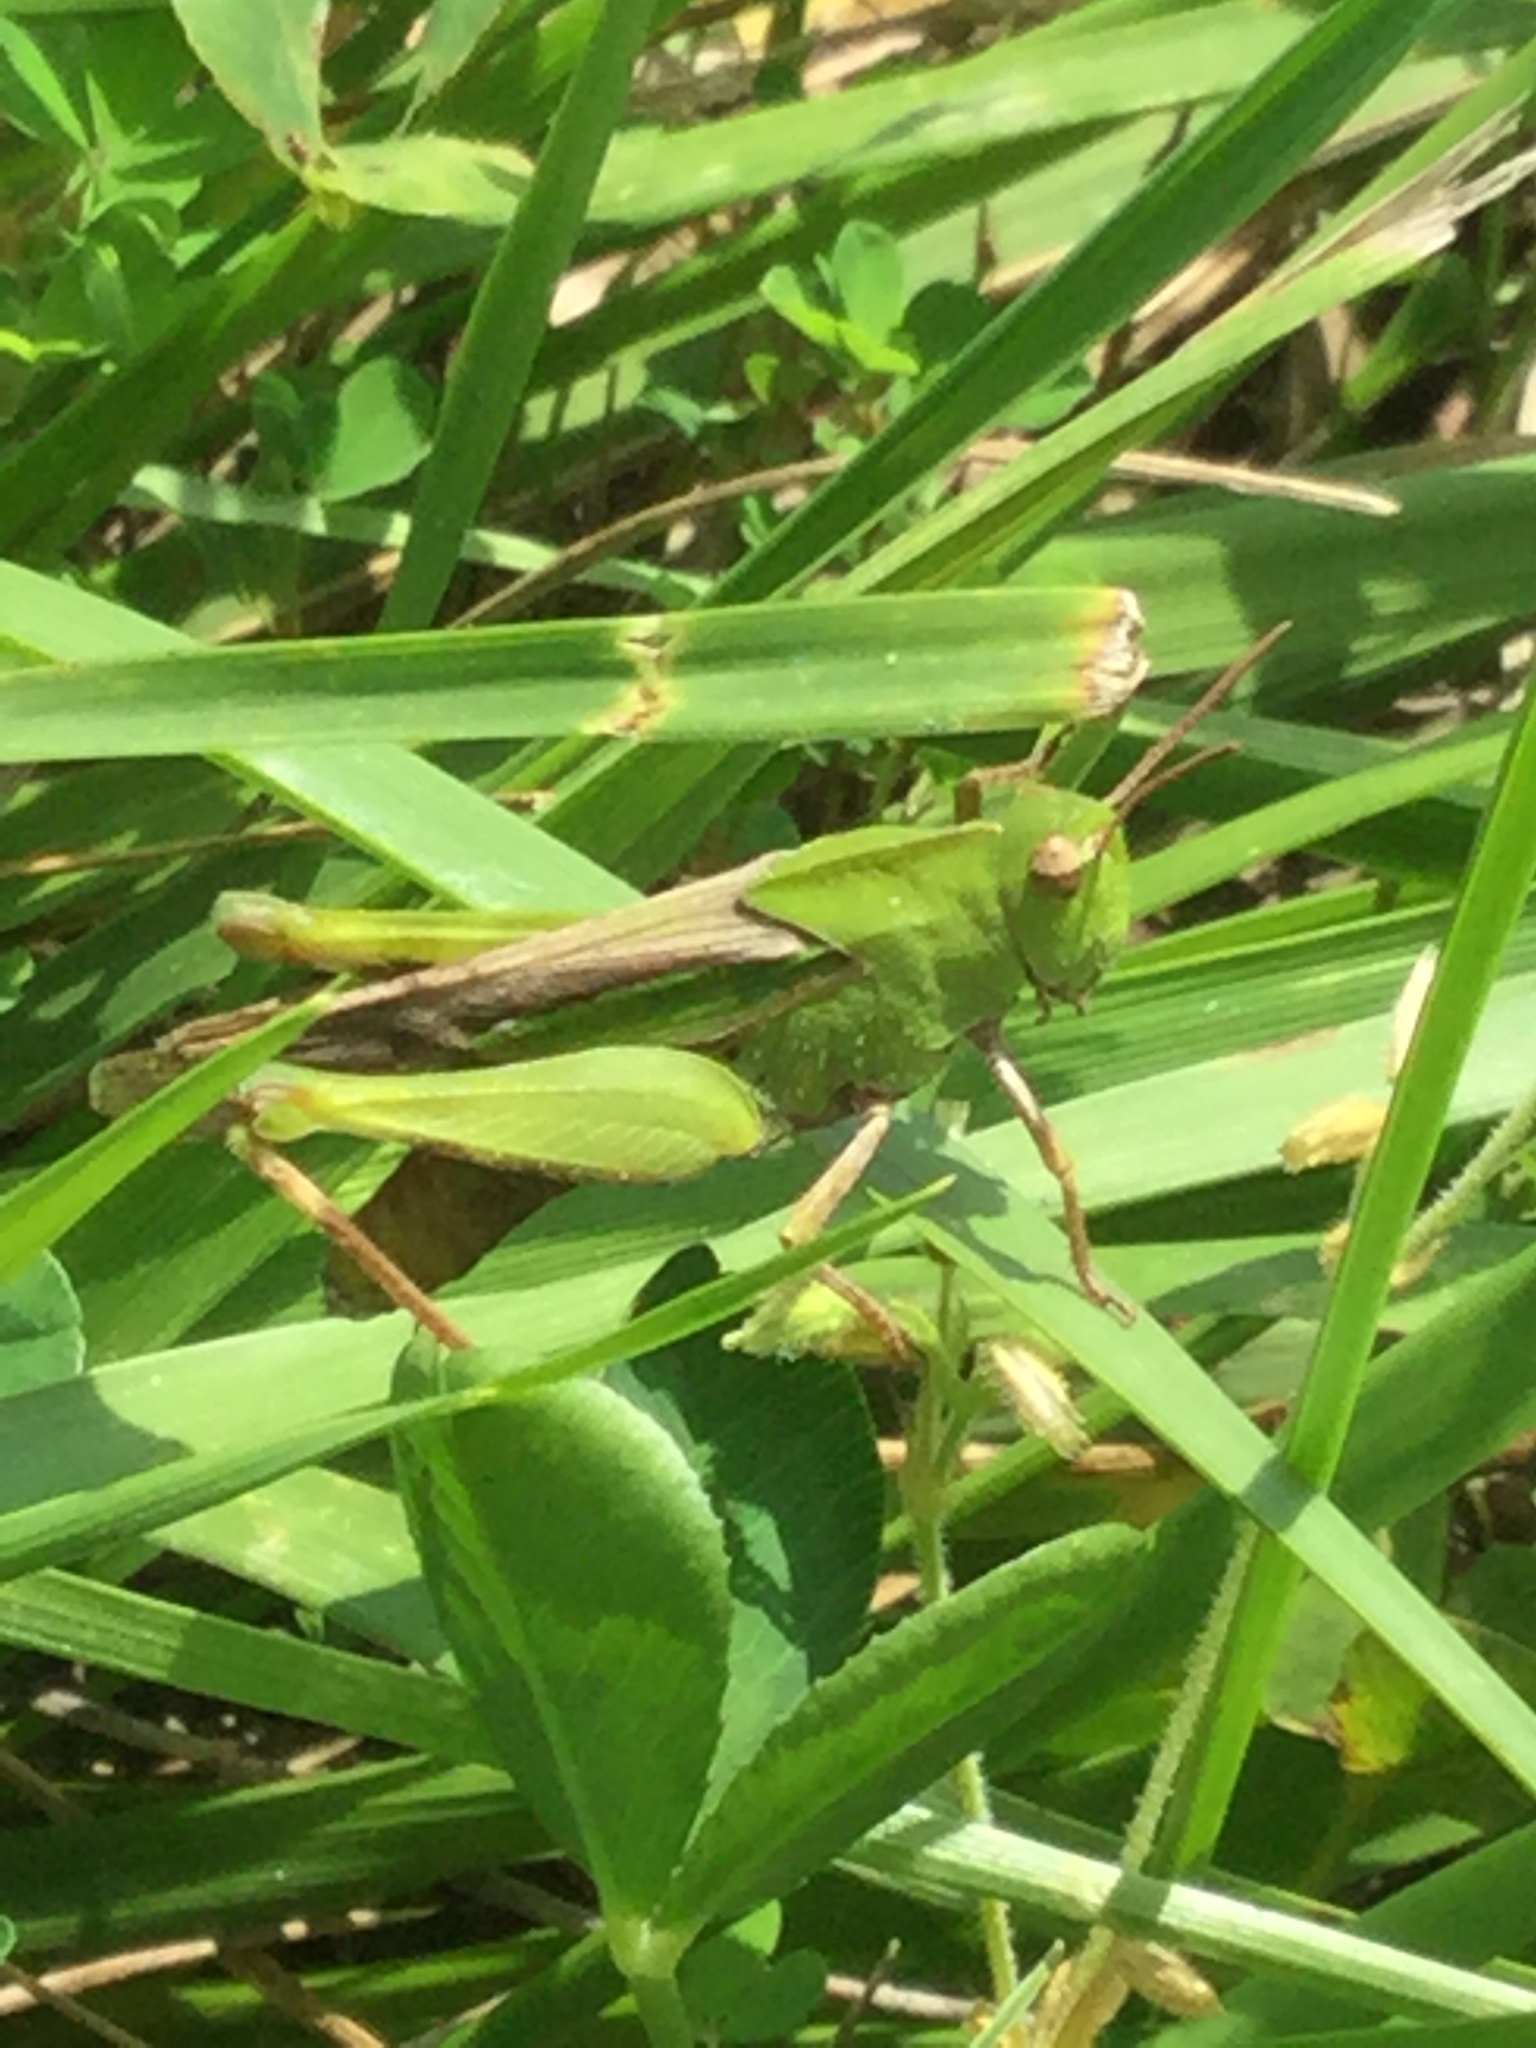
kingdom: Animalia
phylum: Arthropoda
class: Insecta
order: Orthoptera
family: Acrididae
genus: Chortophaga
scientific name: Chortophaga viridifasciata
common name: Green-striped grasshopper
